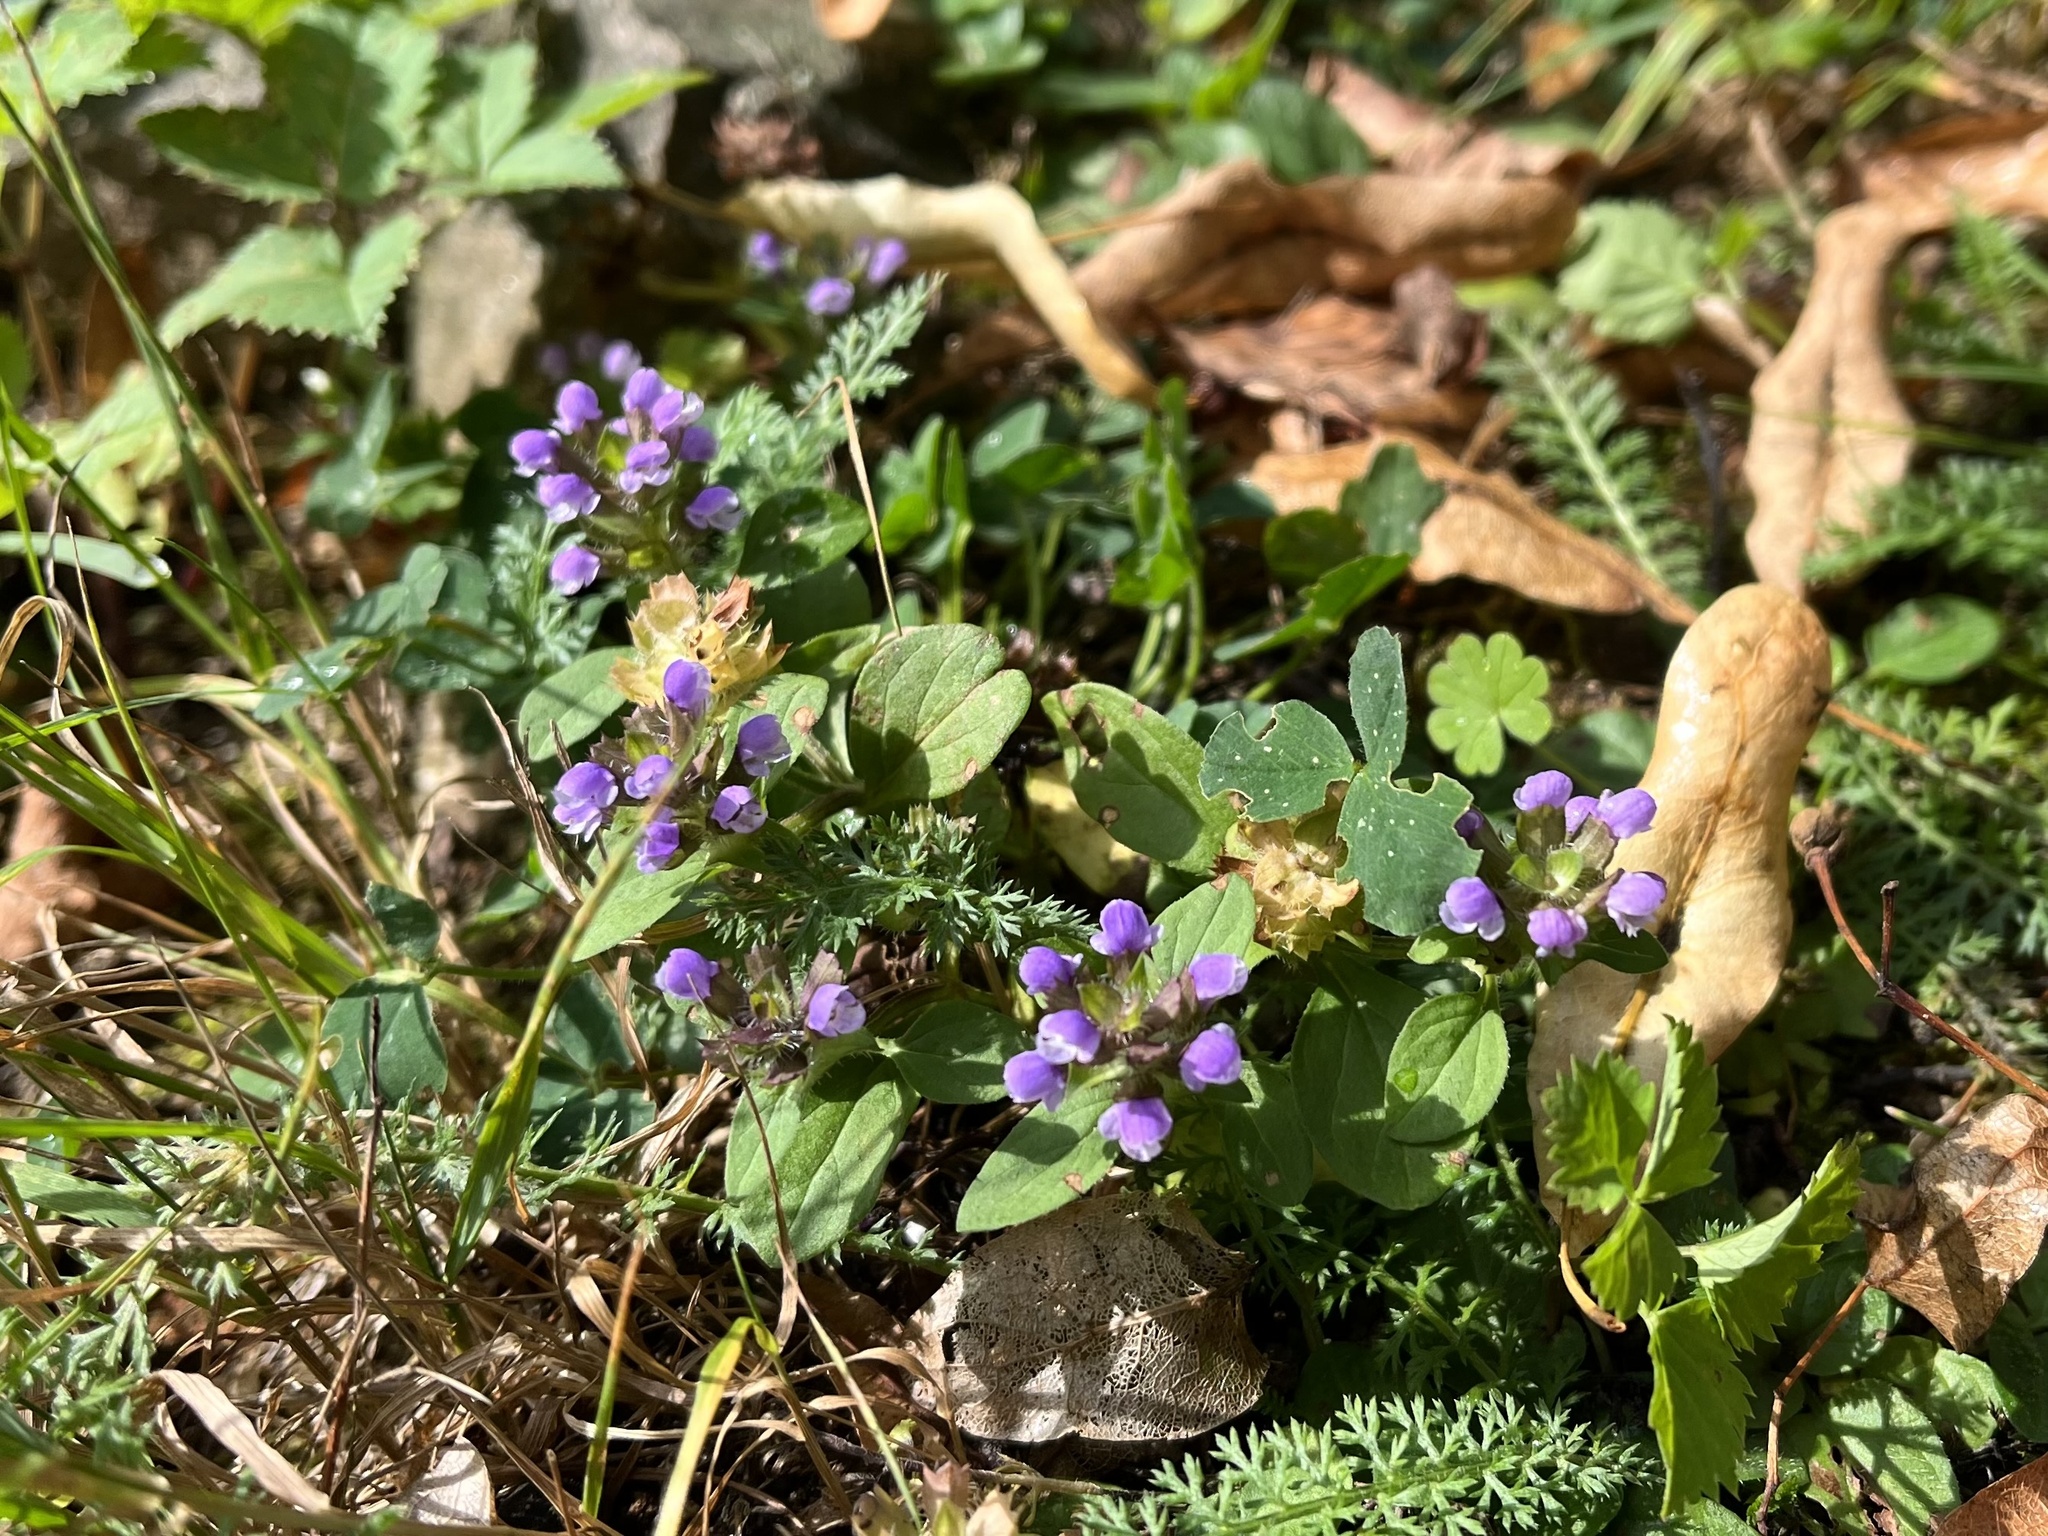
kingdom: Plantae
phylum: Tracheophyta
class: Magnoliopsida
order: Lamiales
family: Lamiaceae
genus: Prunella
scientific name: Prunella vulgaris
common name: Heal-all
